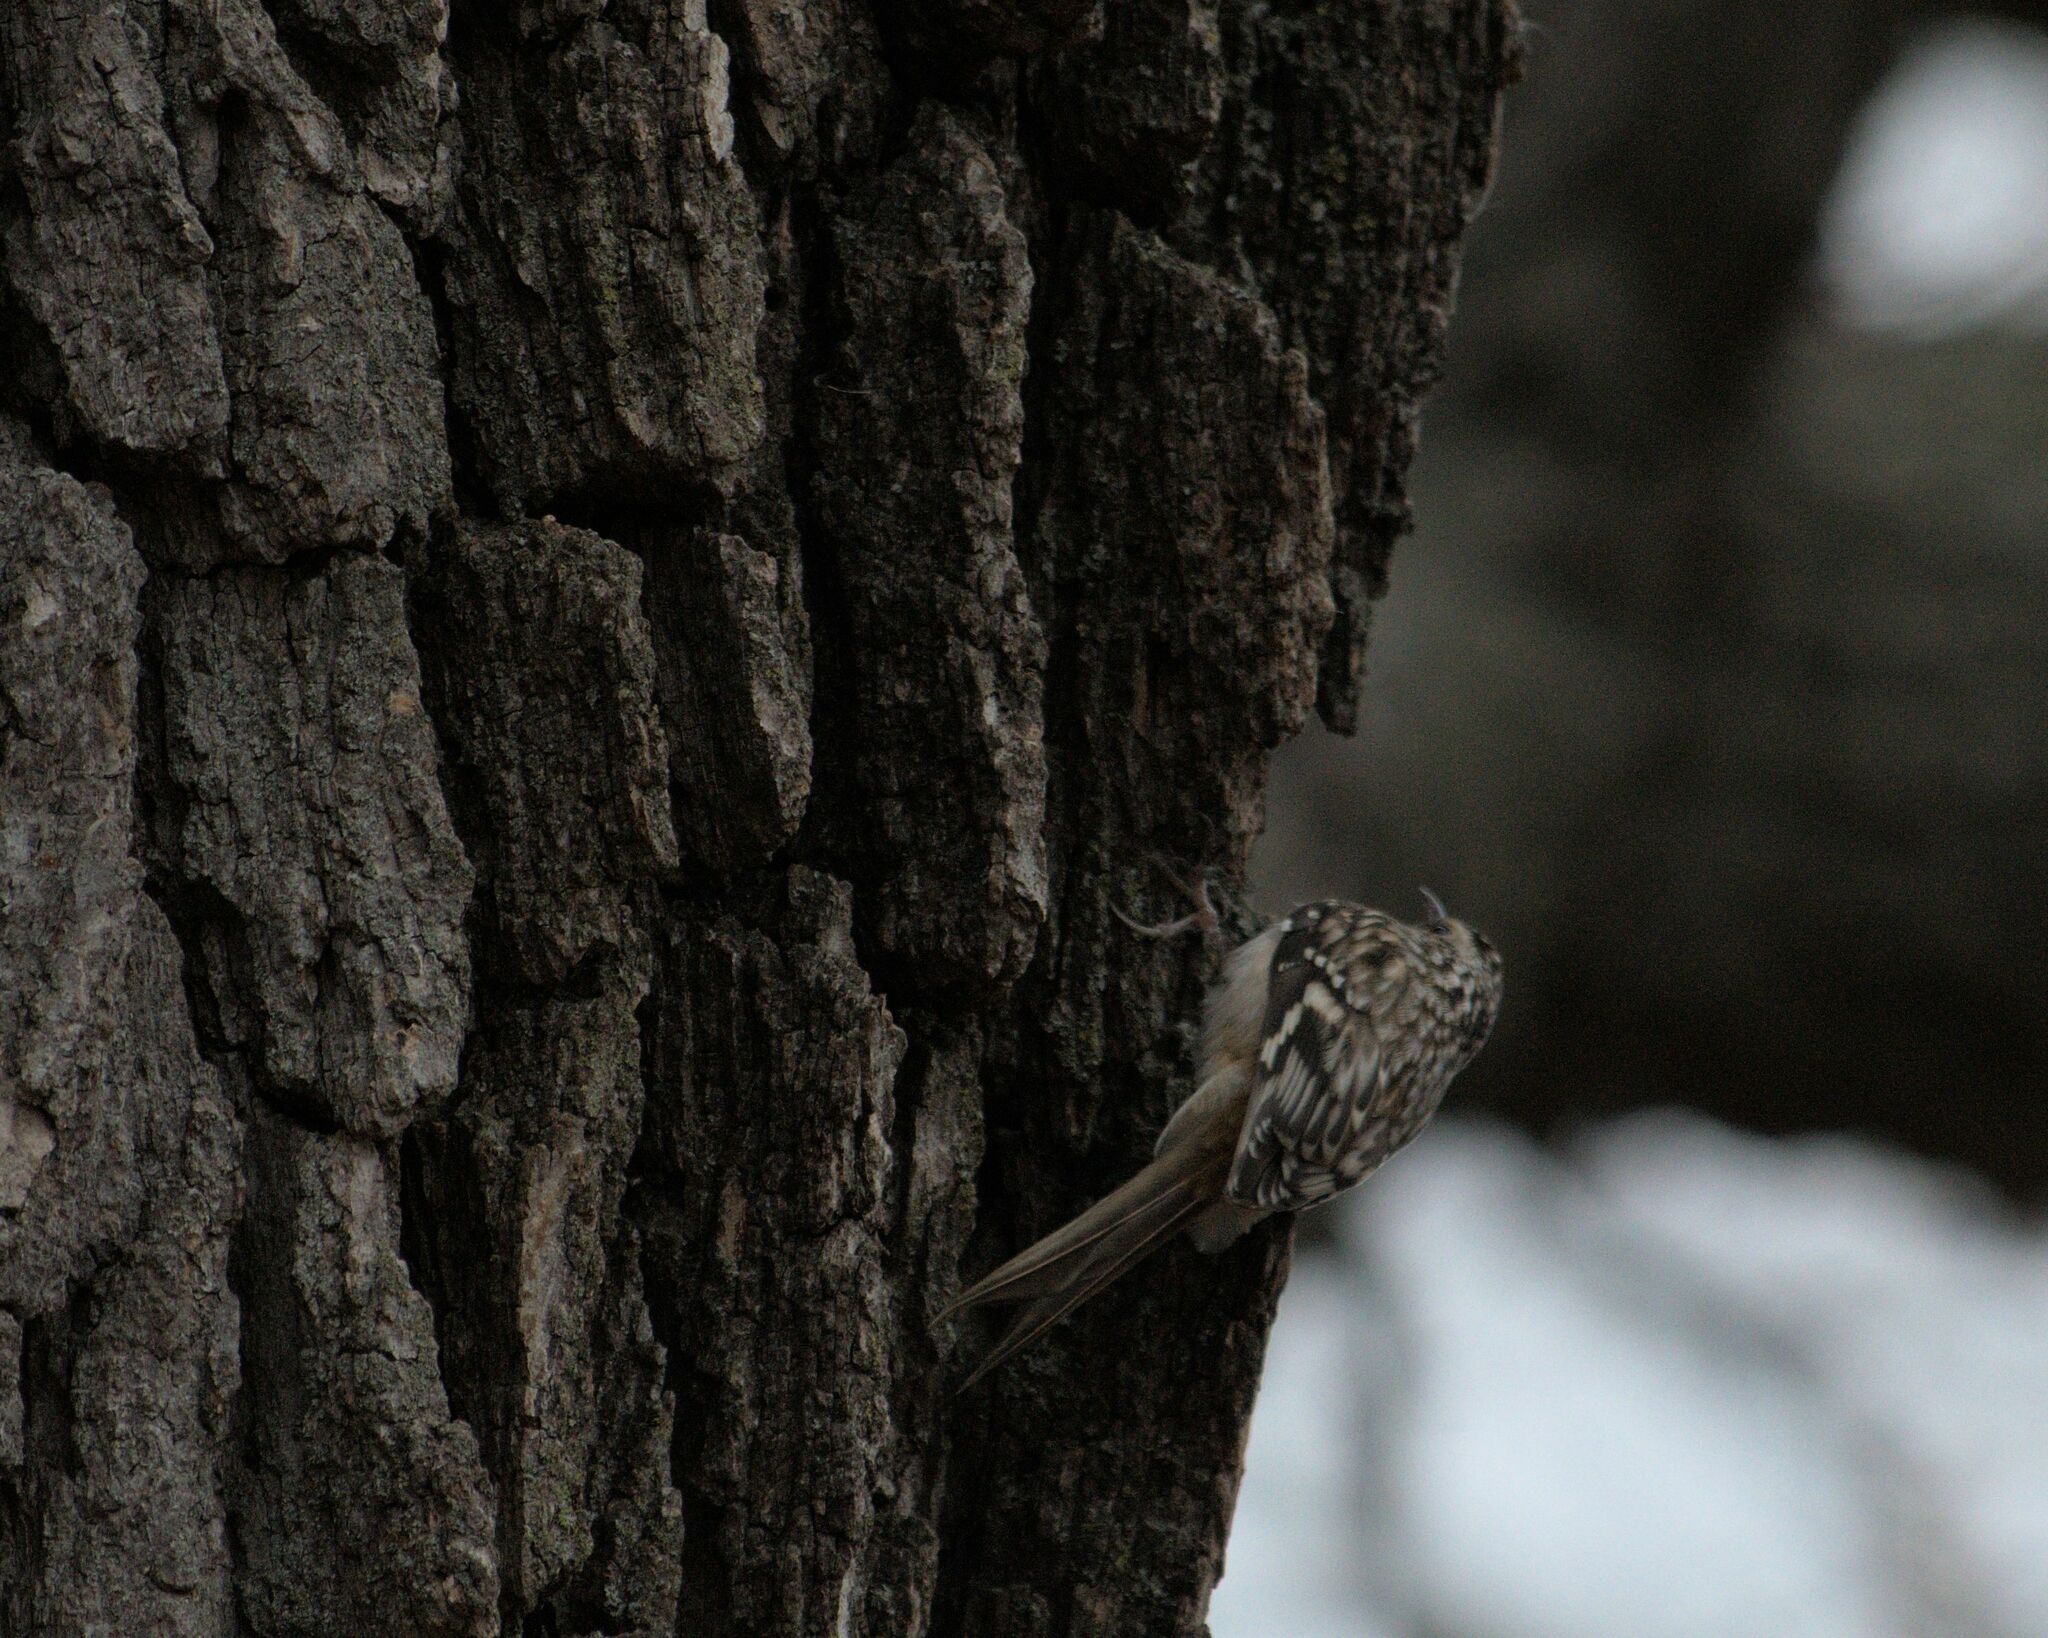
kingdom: Animalia
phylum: Chordata
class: Aves
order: Passeriformes
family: Certhiidae
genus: Certhia
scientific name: Certhia americana
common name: Brown creeper
